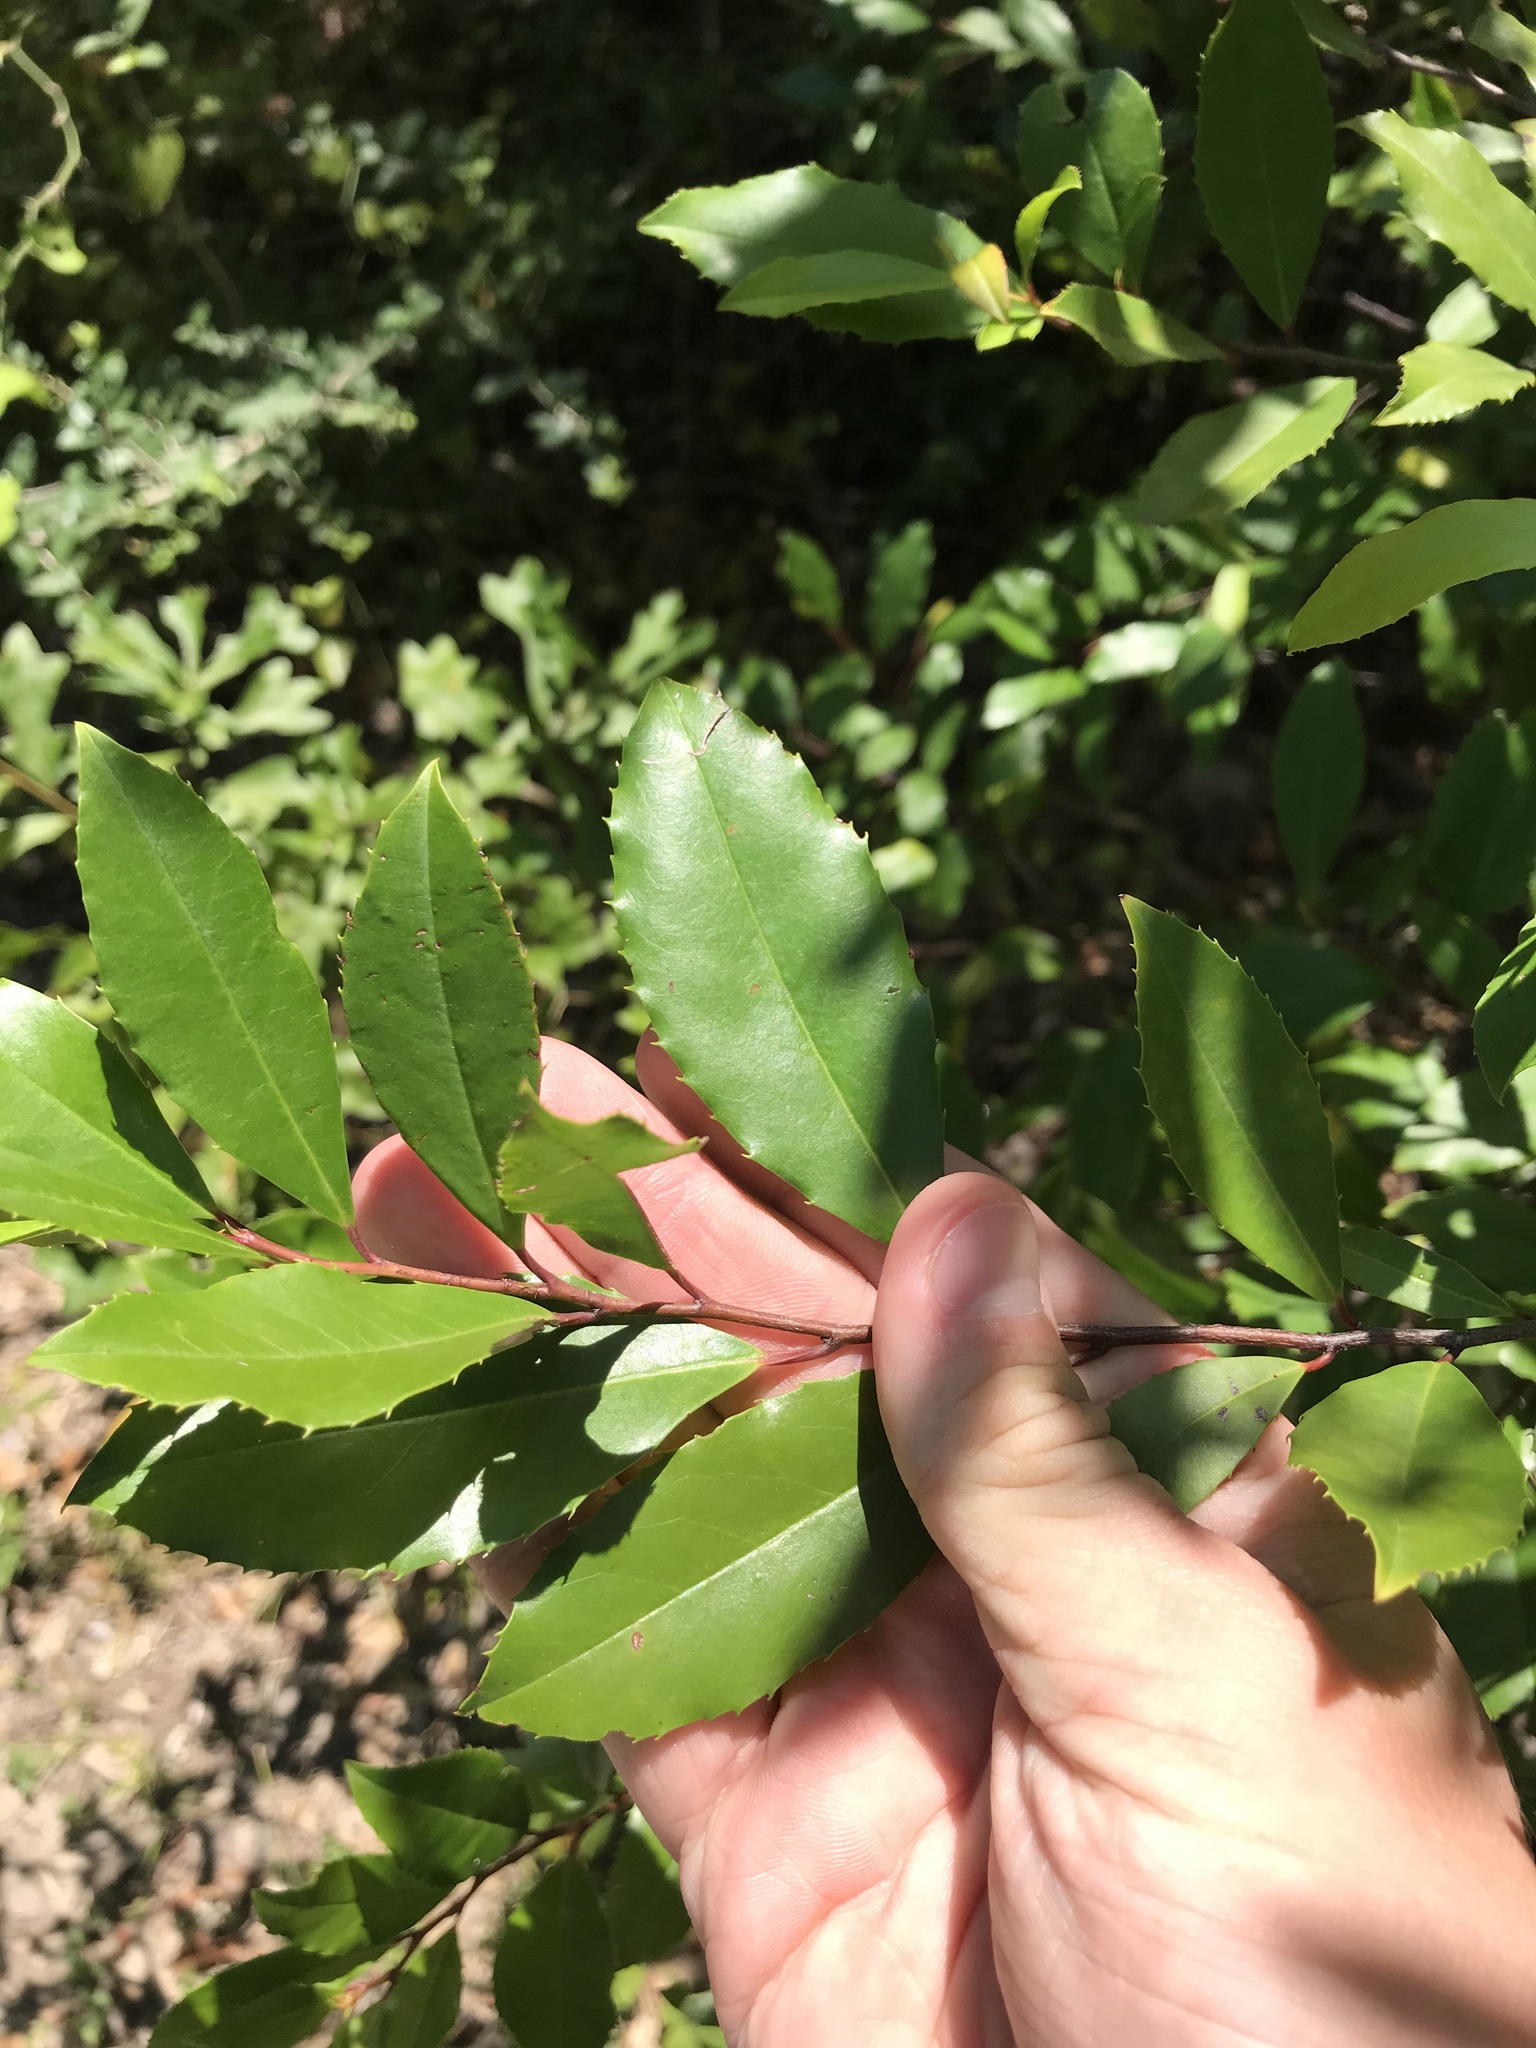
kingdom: Plantae
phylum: Tracheophyta
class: Magnoliopsida
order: Rosales
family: Rosaceae
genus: Prunus
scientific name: Prunus caroliniana
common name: Carolina laurel cherry
